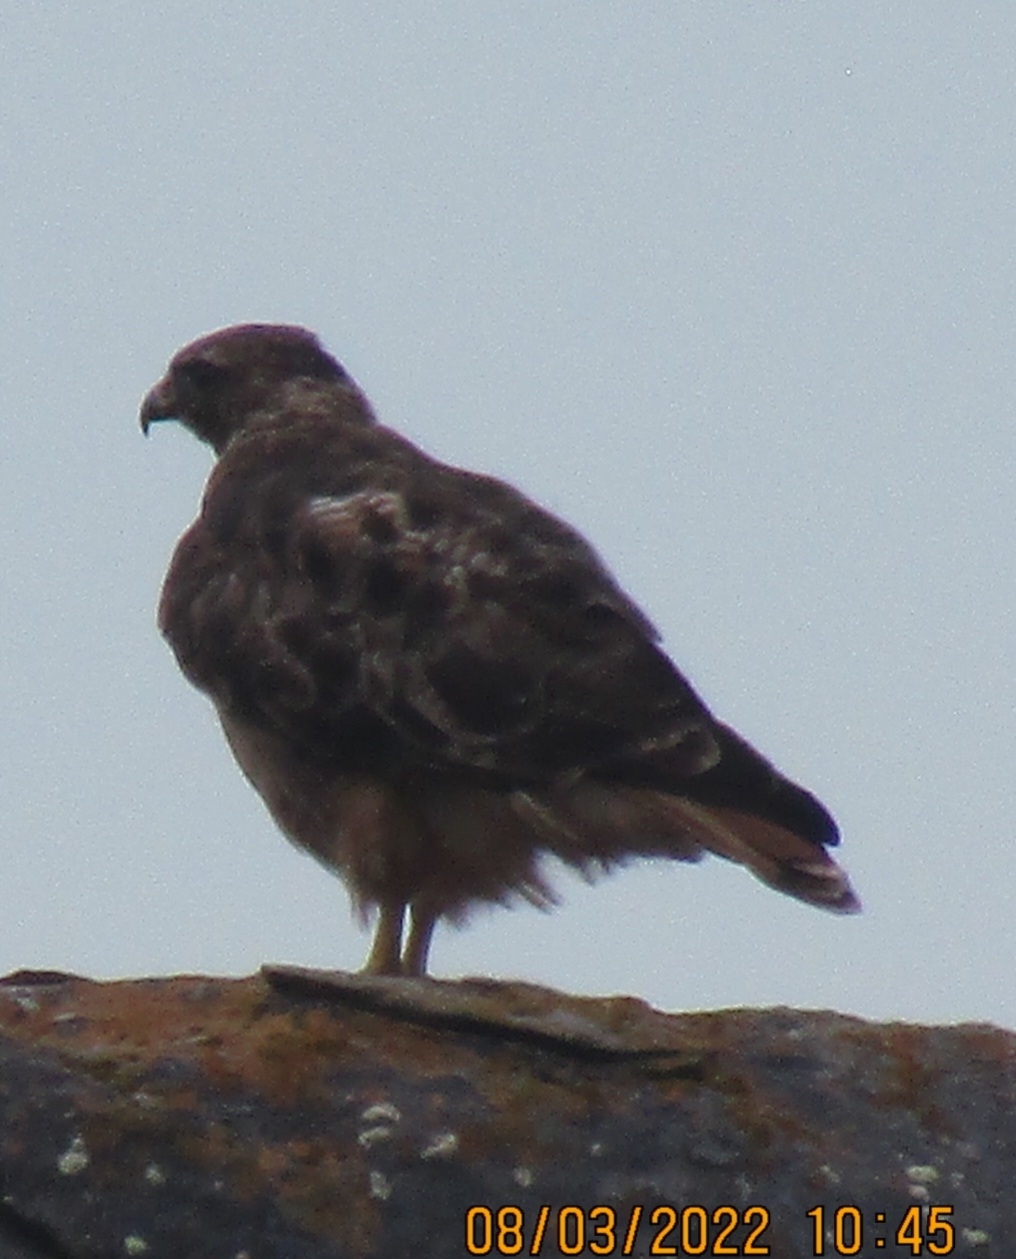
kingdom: Animalia
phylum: Chordata
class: Aves
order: Accipitriformes
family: Accipitridae
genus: Buteo
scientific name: Buteo jamaicensis
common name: Red-tailed hawk
